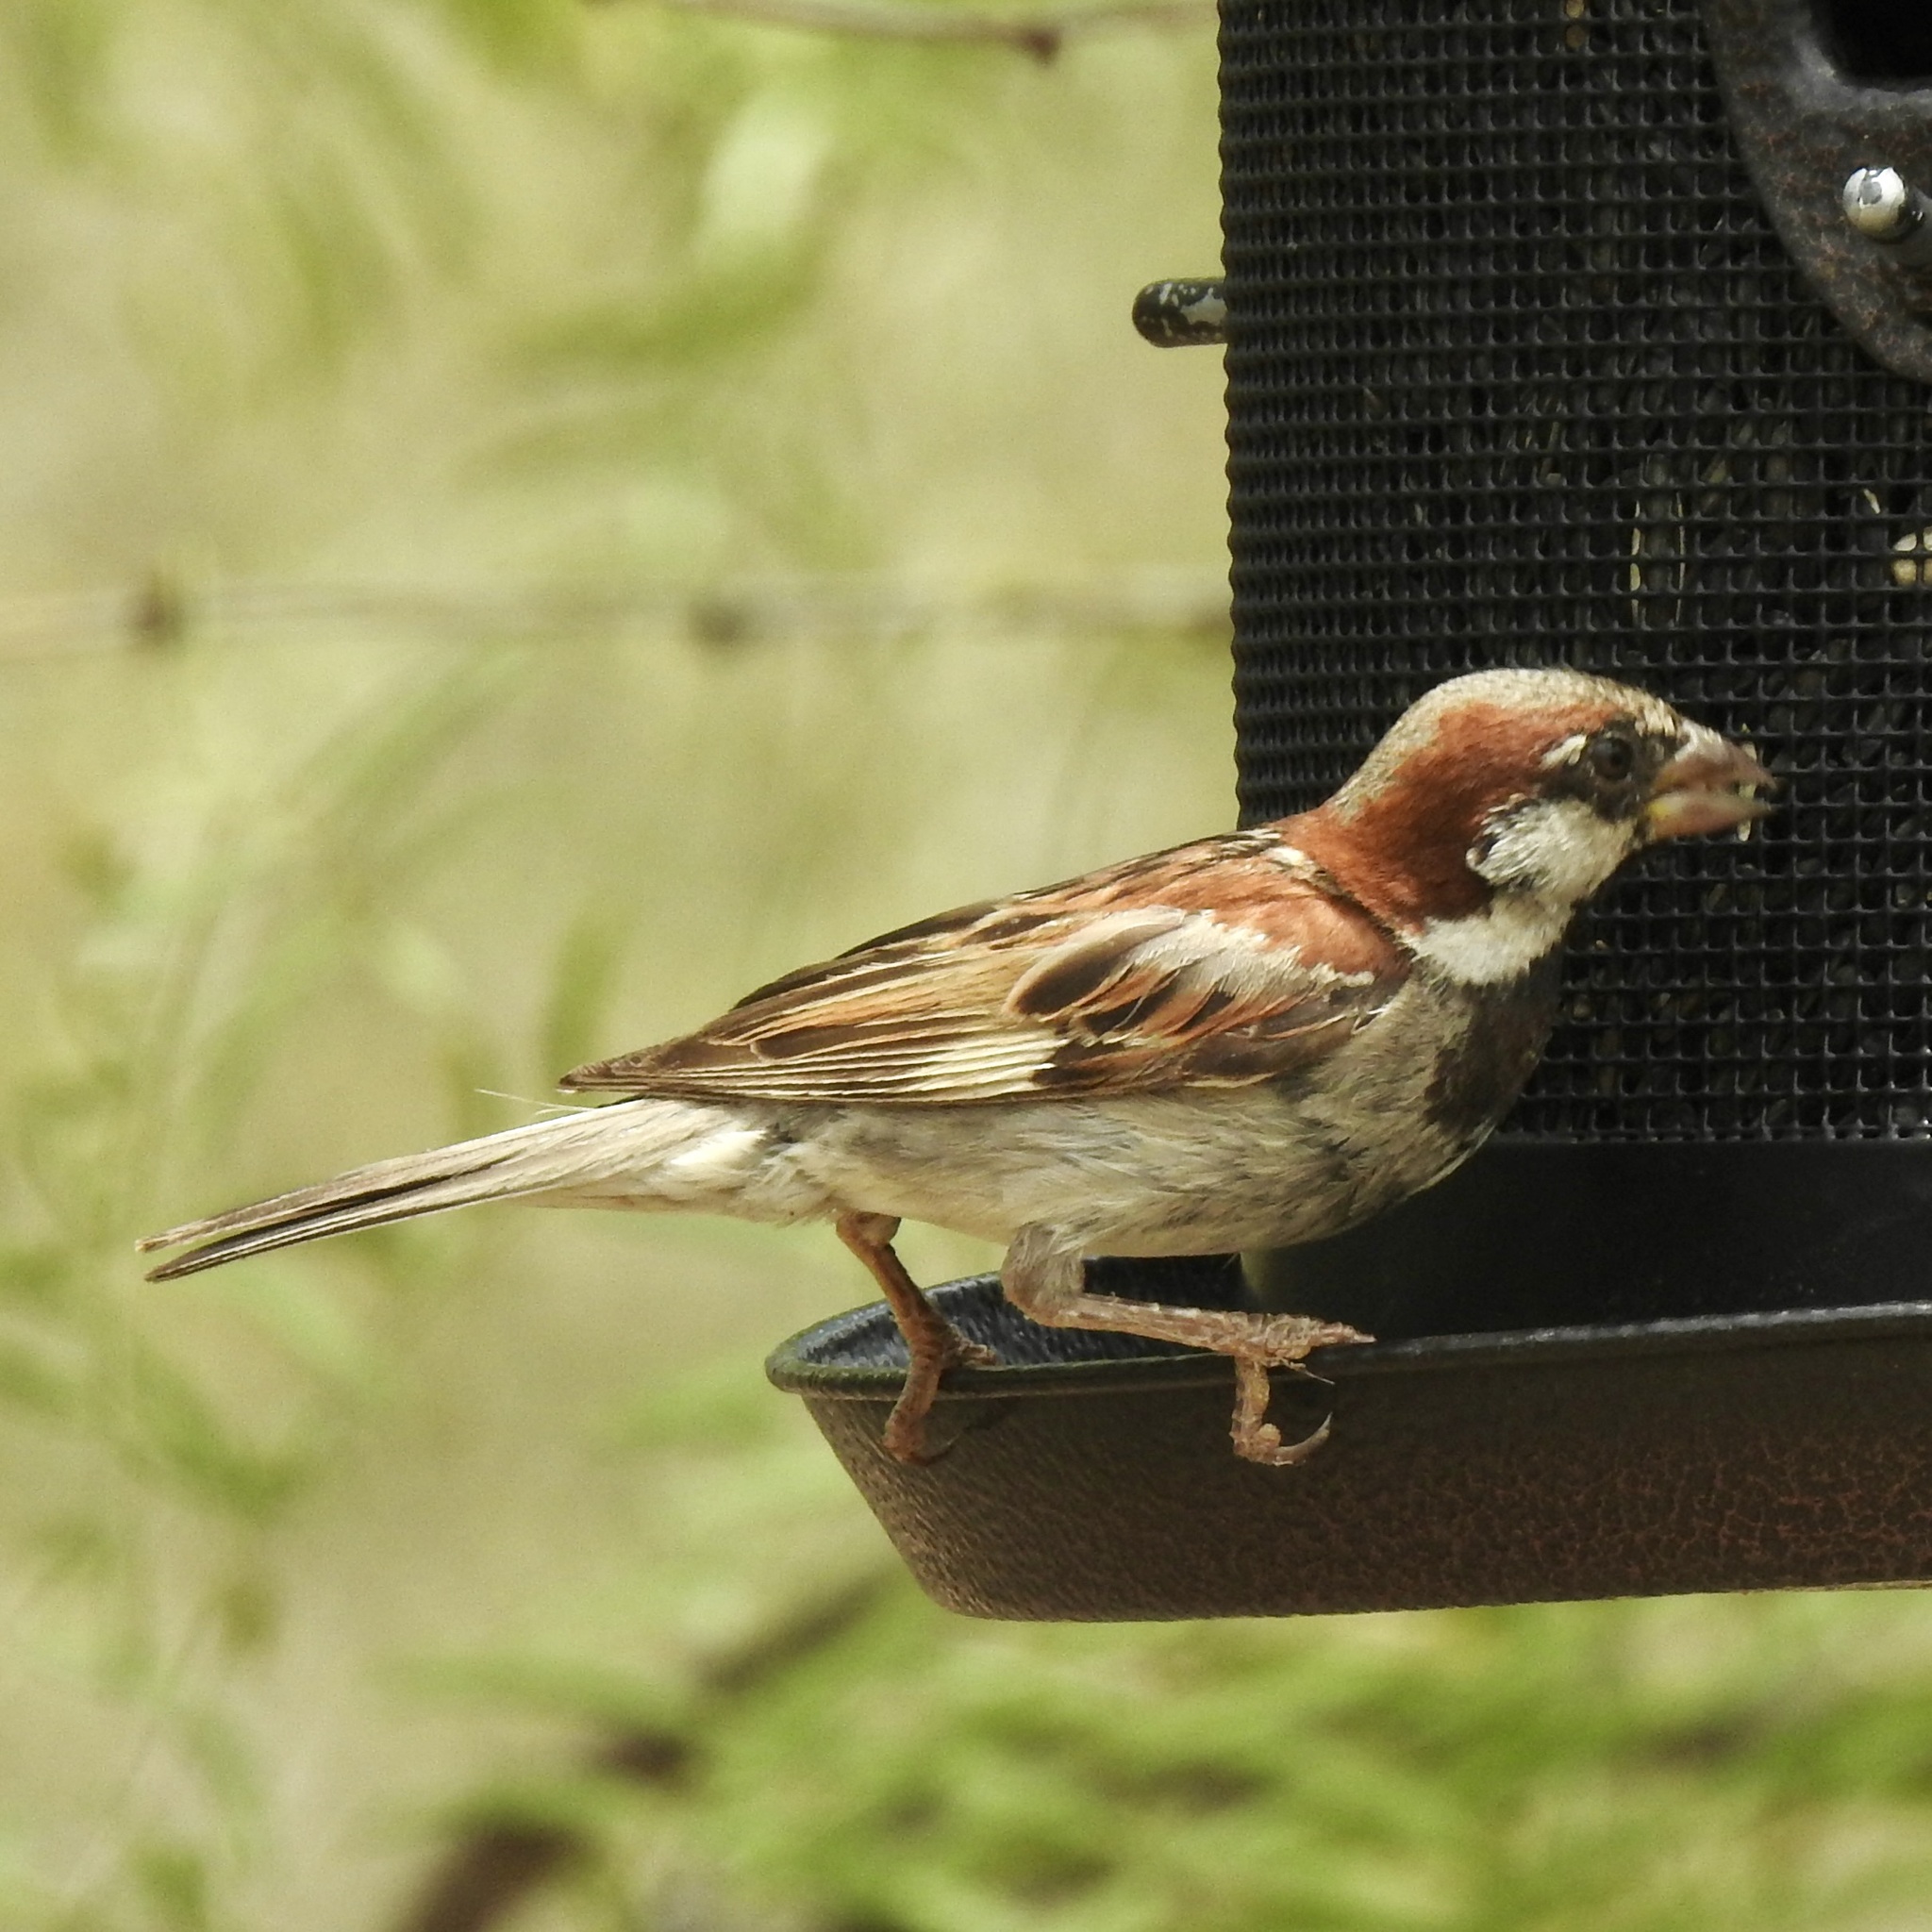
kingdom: Animalia
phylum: Chordata
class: Aves
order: Passeriformes
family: Passeridae
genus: Passer
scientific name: Passer domesticus
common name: House sparrow
